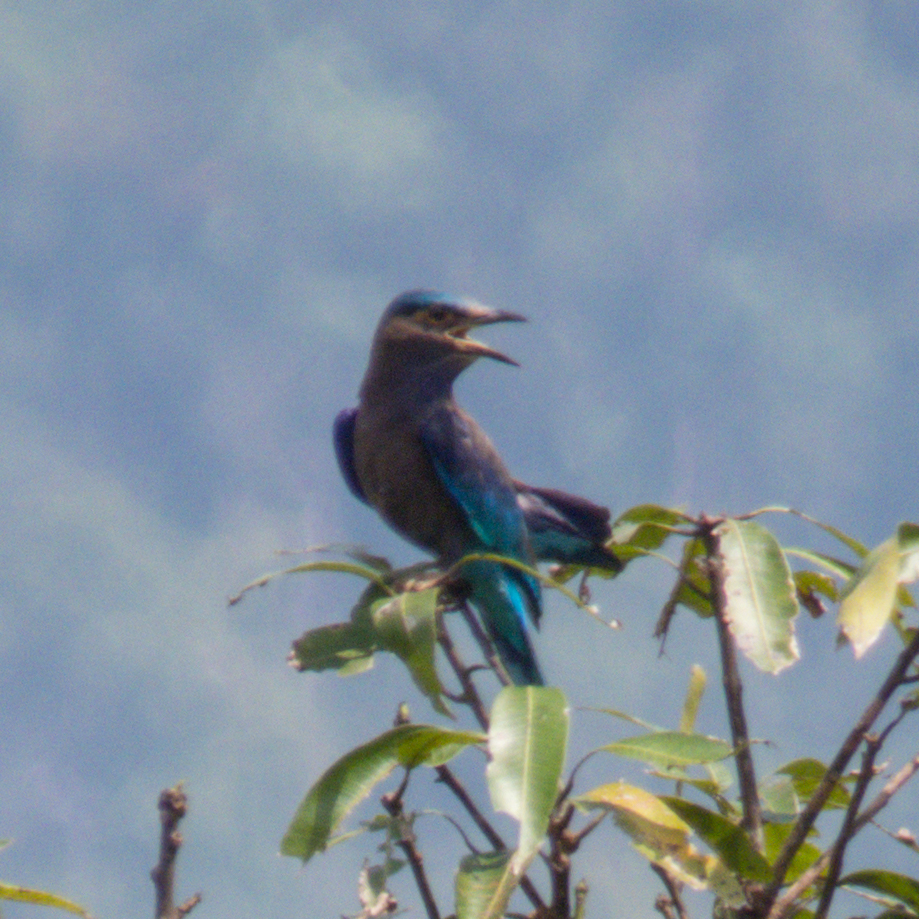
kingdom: Animalia
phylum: Chordata
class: Aves
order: Coraciiformes
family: Coraciidae
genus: Coracias
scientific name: Coracias affinis
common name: Indochinese roller
